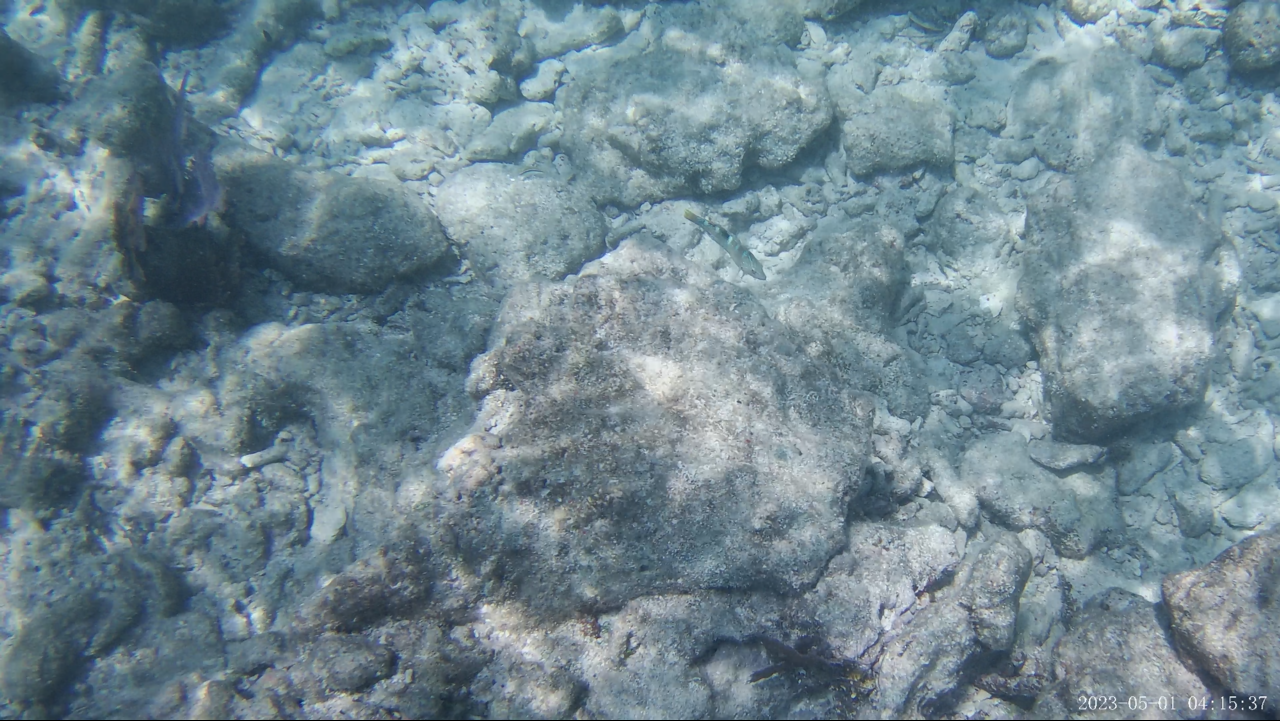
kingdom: Animalia
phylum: Chordata
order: Perciformes
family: Labridae
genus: Halichoeres
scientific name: Halichoeres radiatus
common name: Puddingwife
